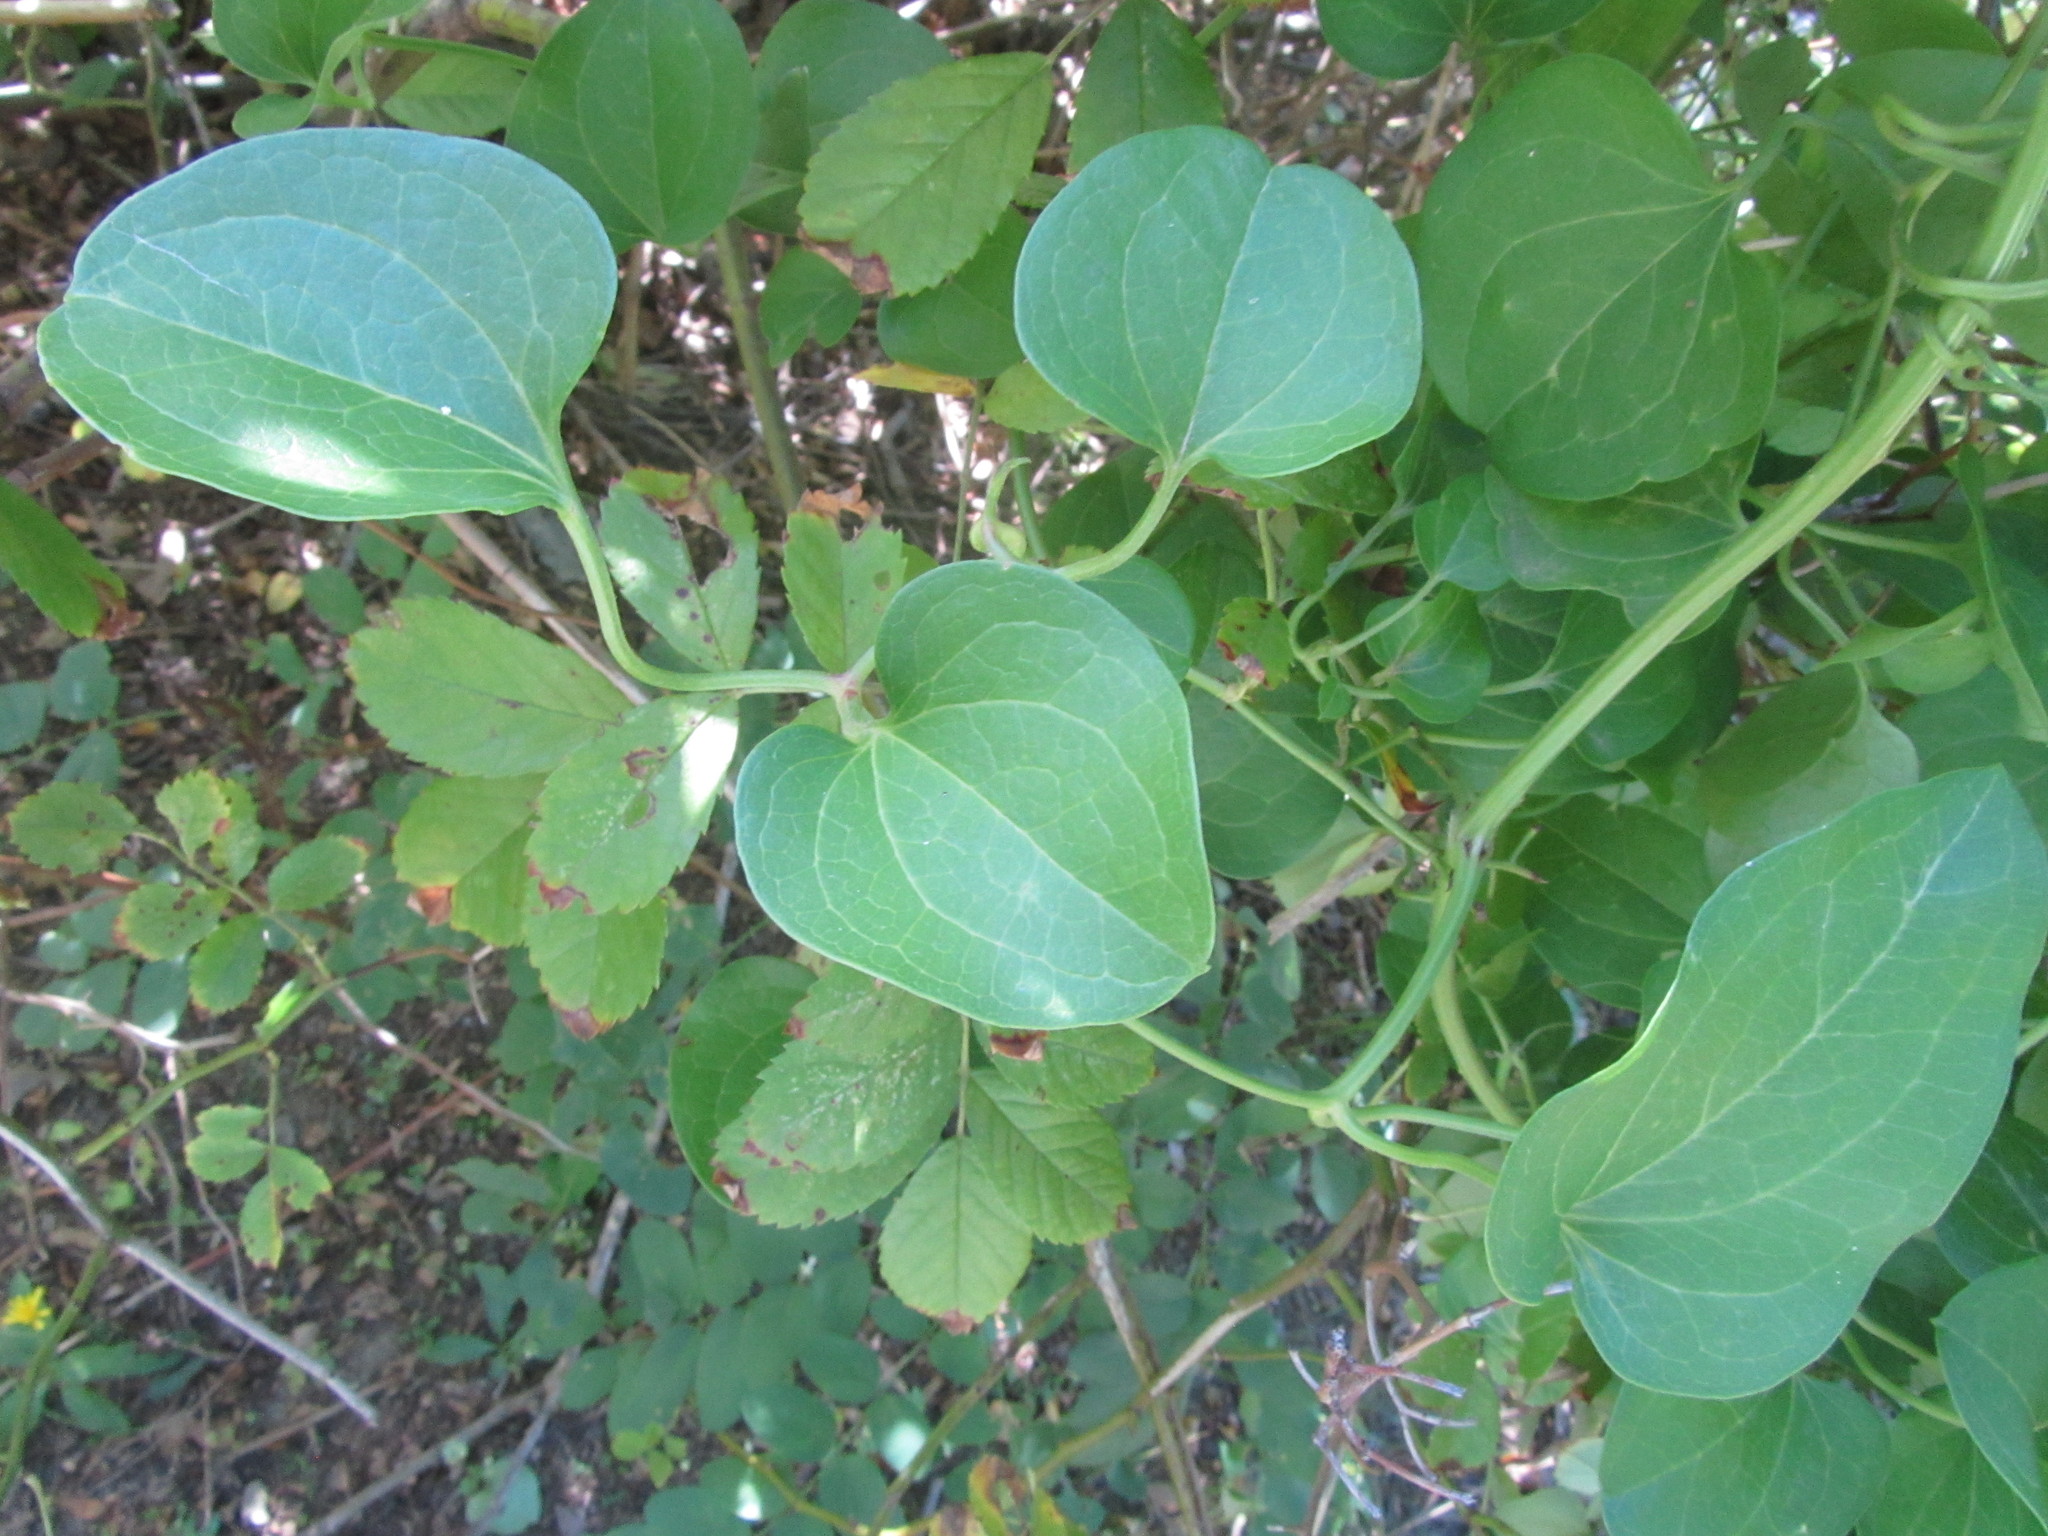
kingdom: Plantae
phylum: Tracheophyta
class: Magnoliopsida
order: Ranunculales
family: Ranunculaceae
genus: Clematis
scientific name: Clematis terniflora
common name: Sweet autumn clematis
